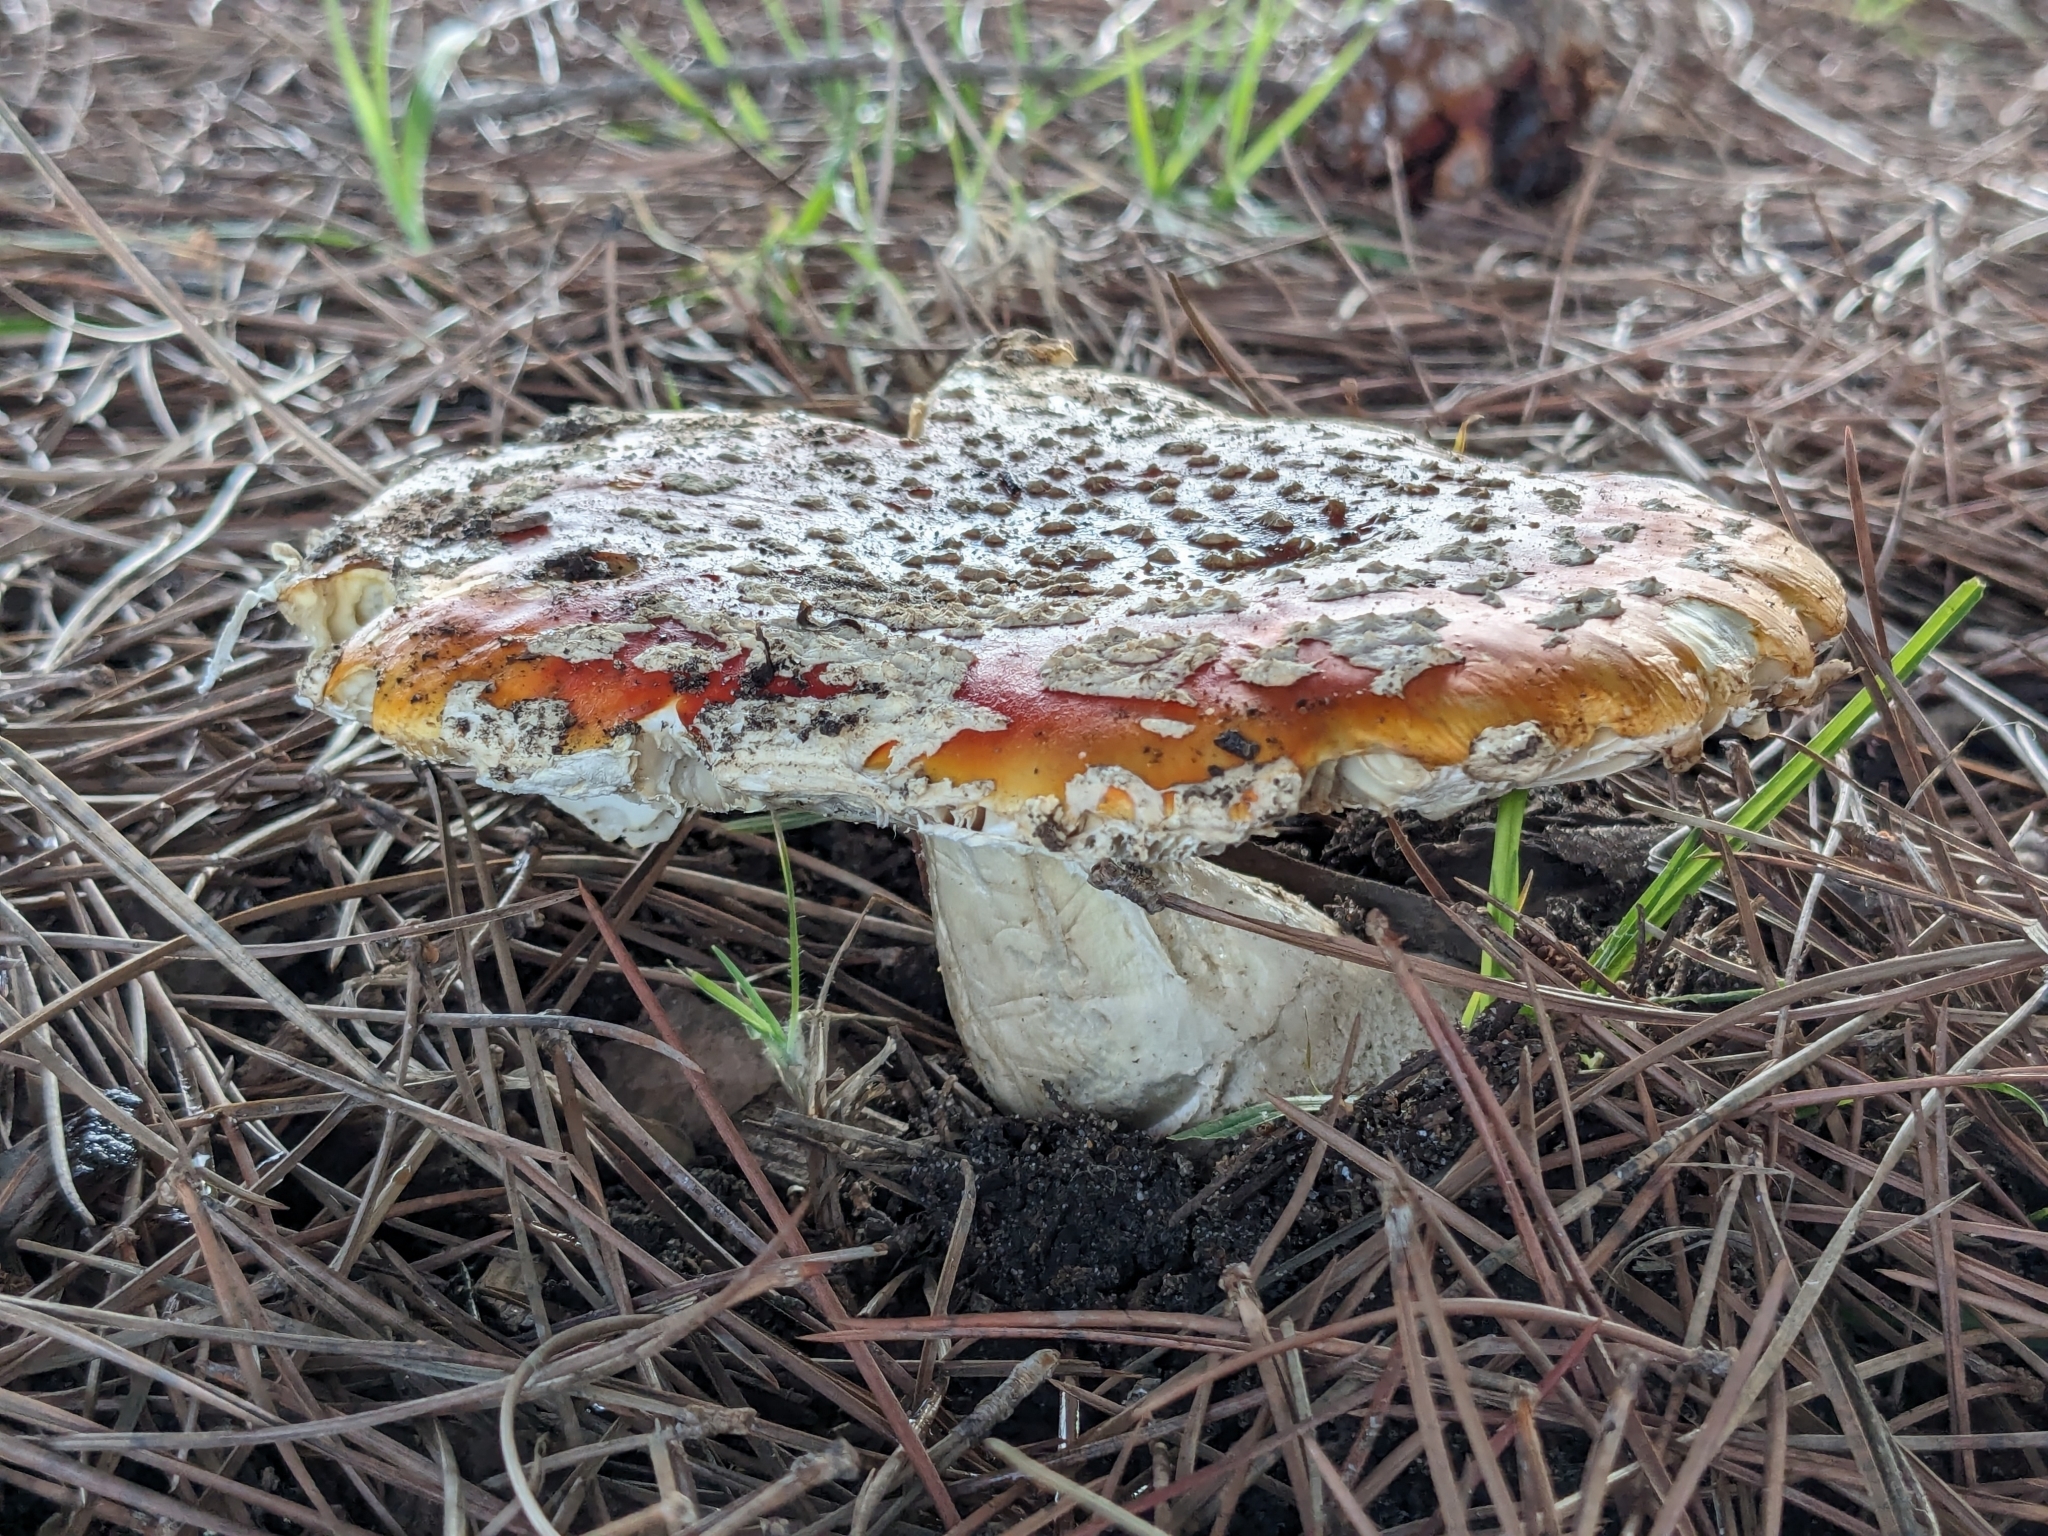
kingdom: Fungi
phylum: Basidiomycota
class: Agaricomycetes
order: Agaricales
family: Amanitaceae
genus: Amanita
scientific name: Amanita muscaria
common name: Fly agaric
